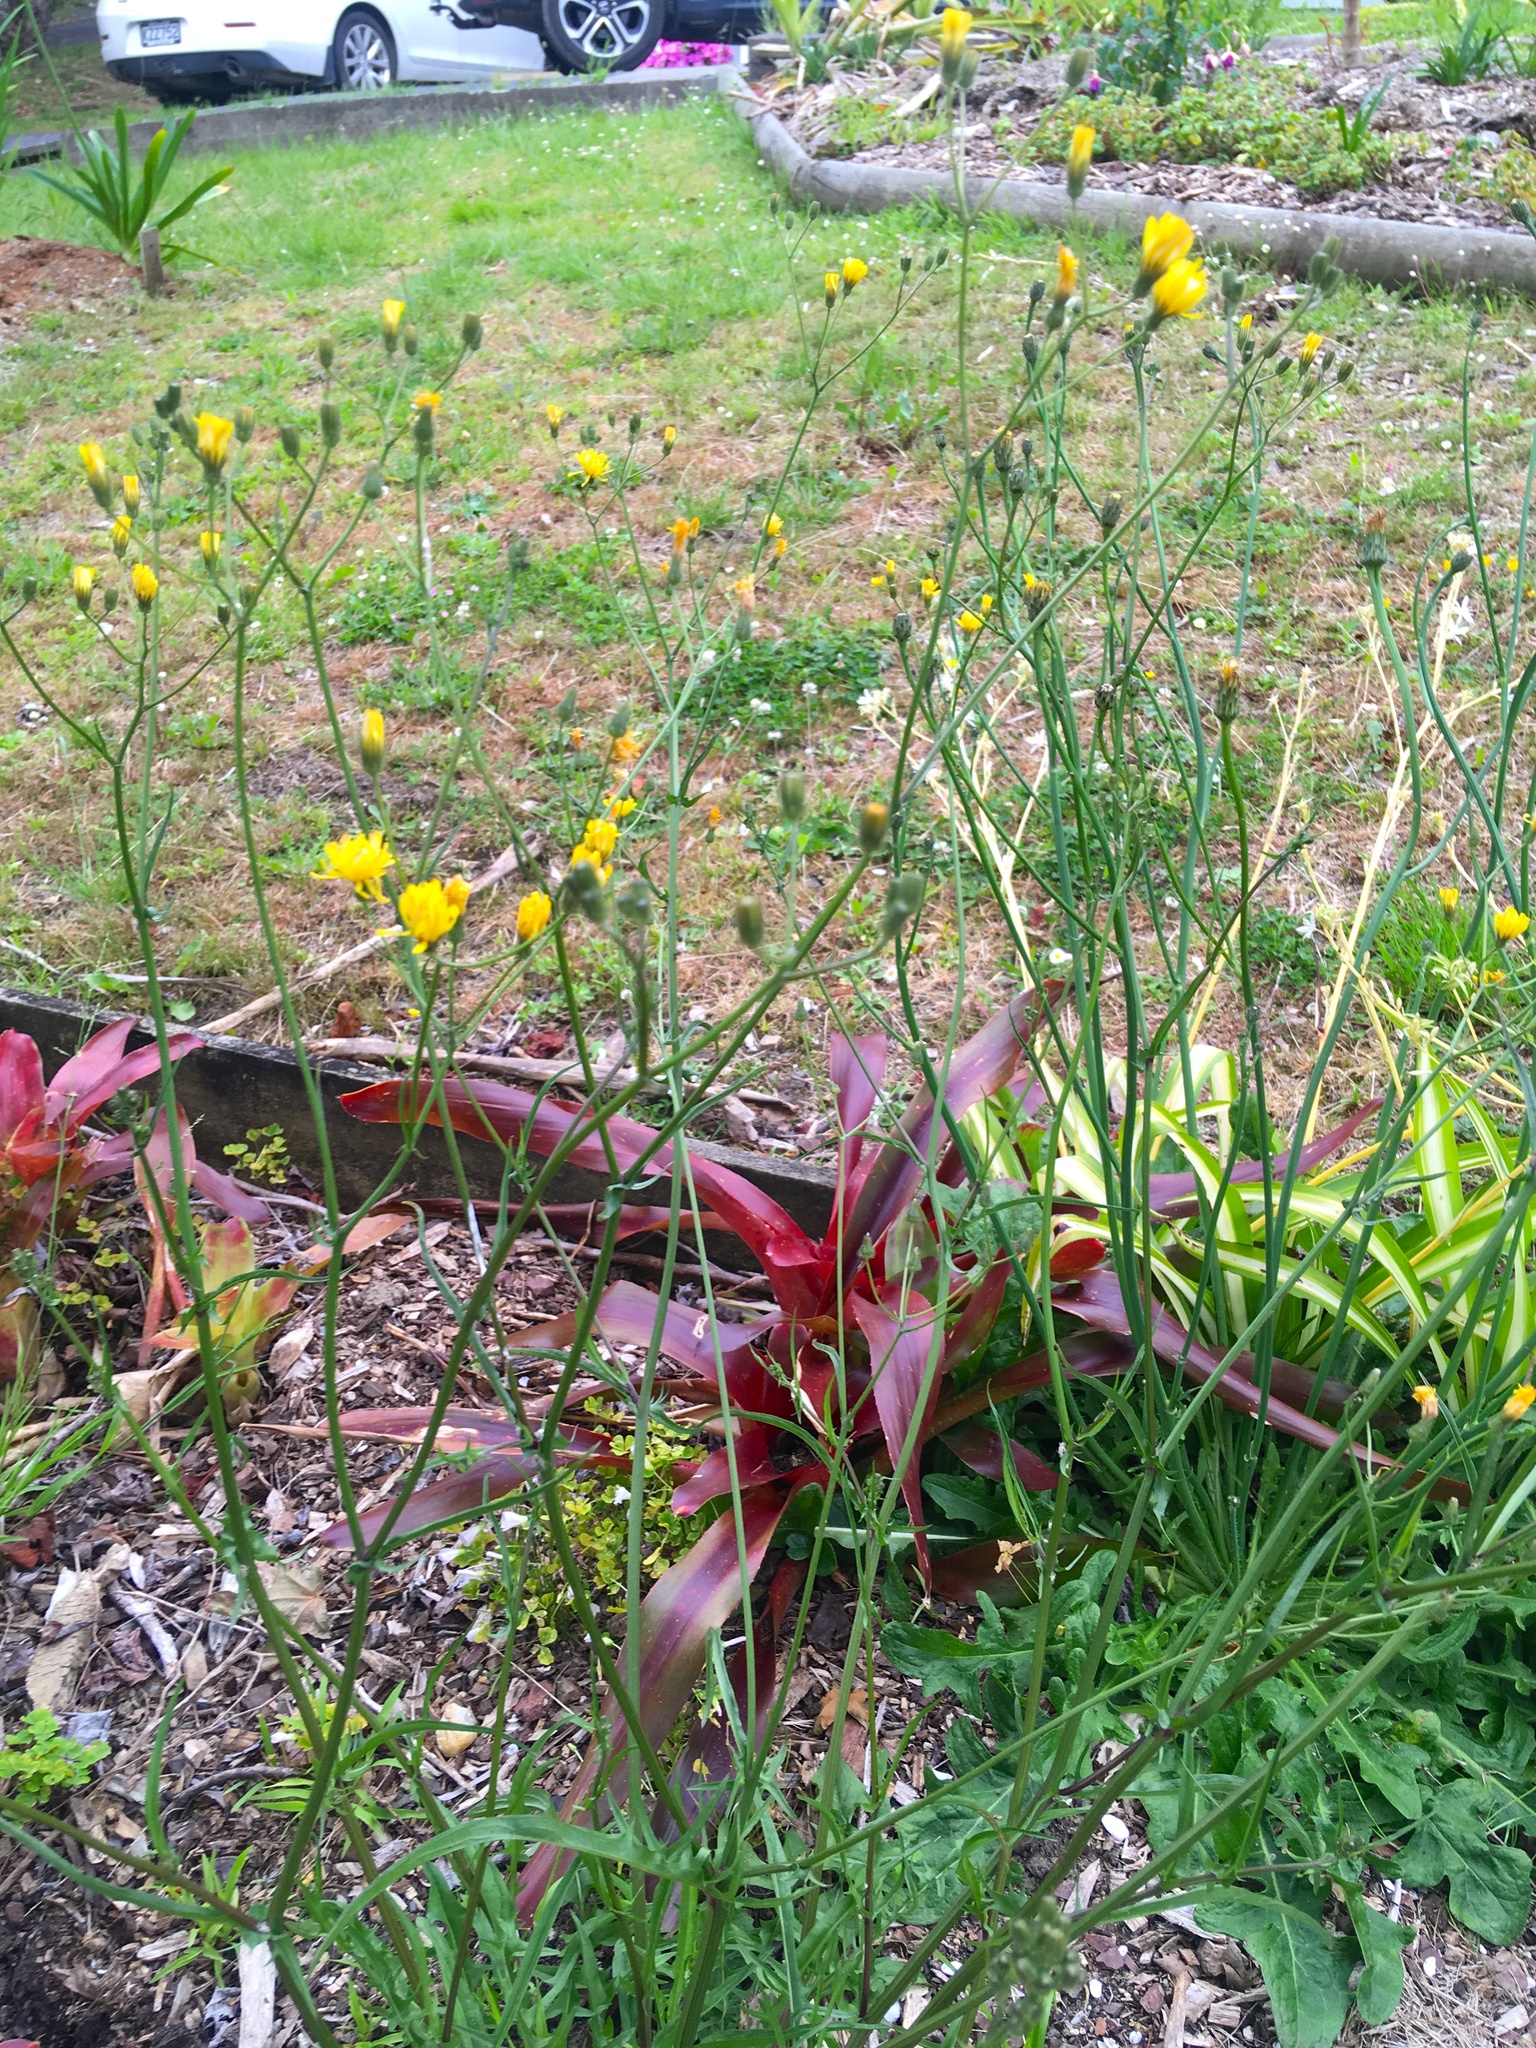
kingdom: Plantae
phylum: Tracheophyta
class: Magnoliopsida
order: Asterales
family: Asteraceae
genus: Crepis
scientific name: Crepis capillaris
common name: Smooth hawksbeard
